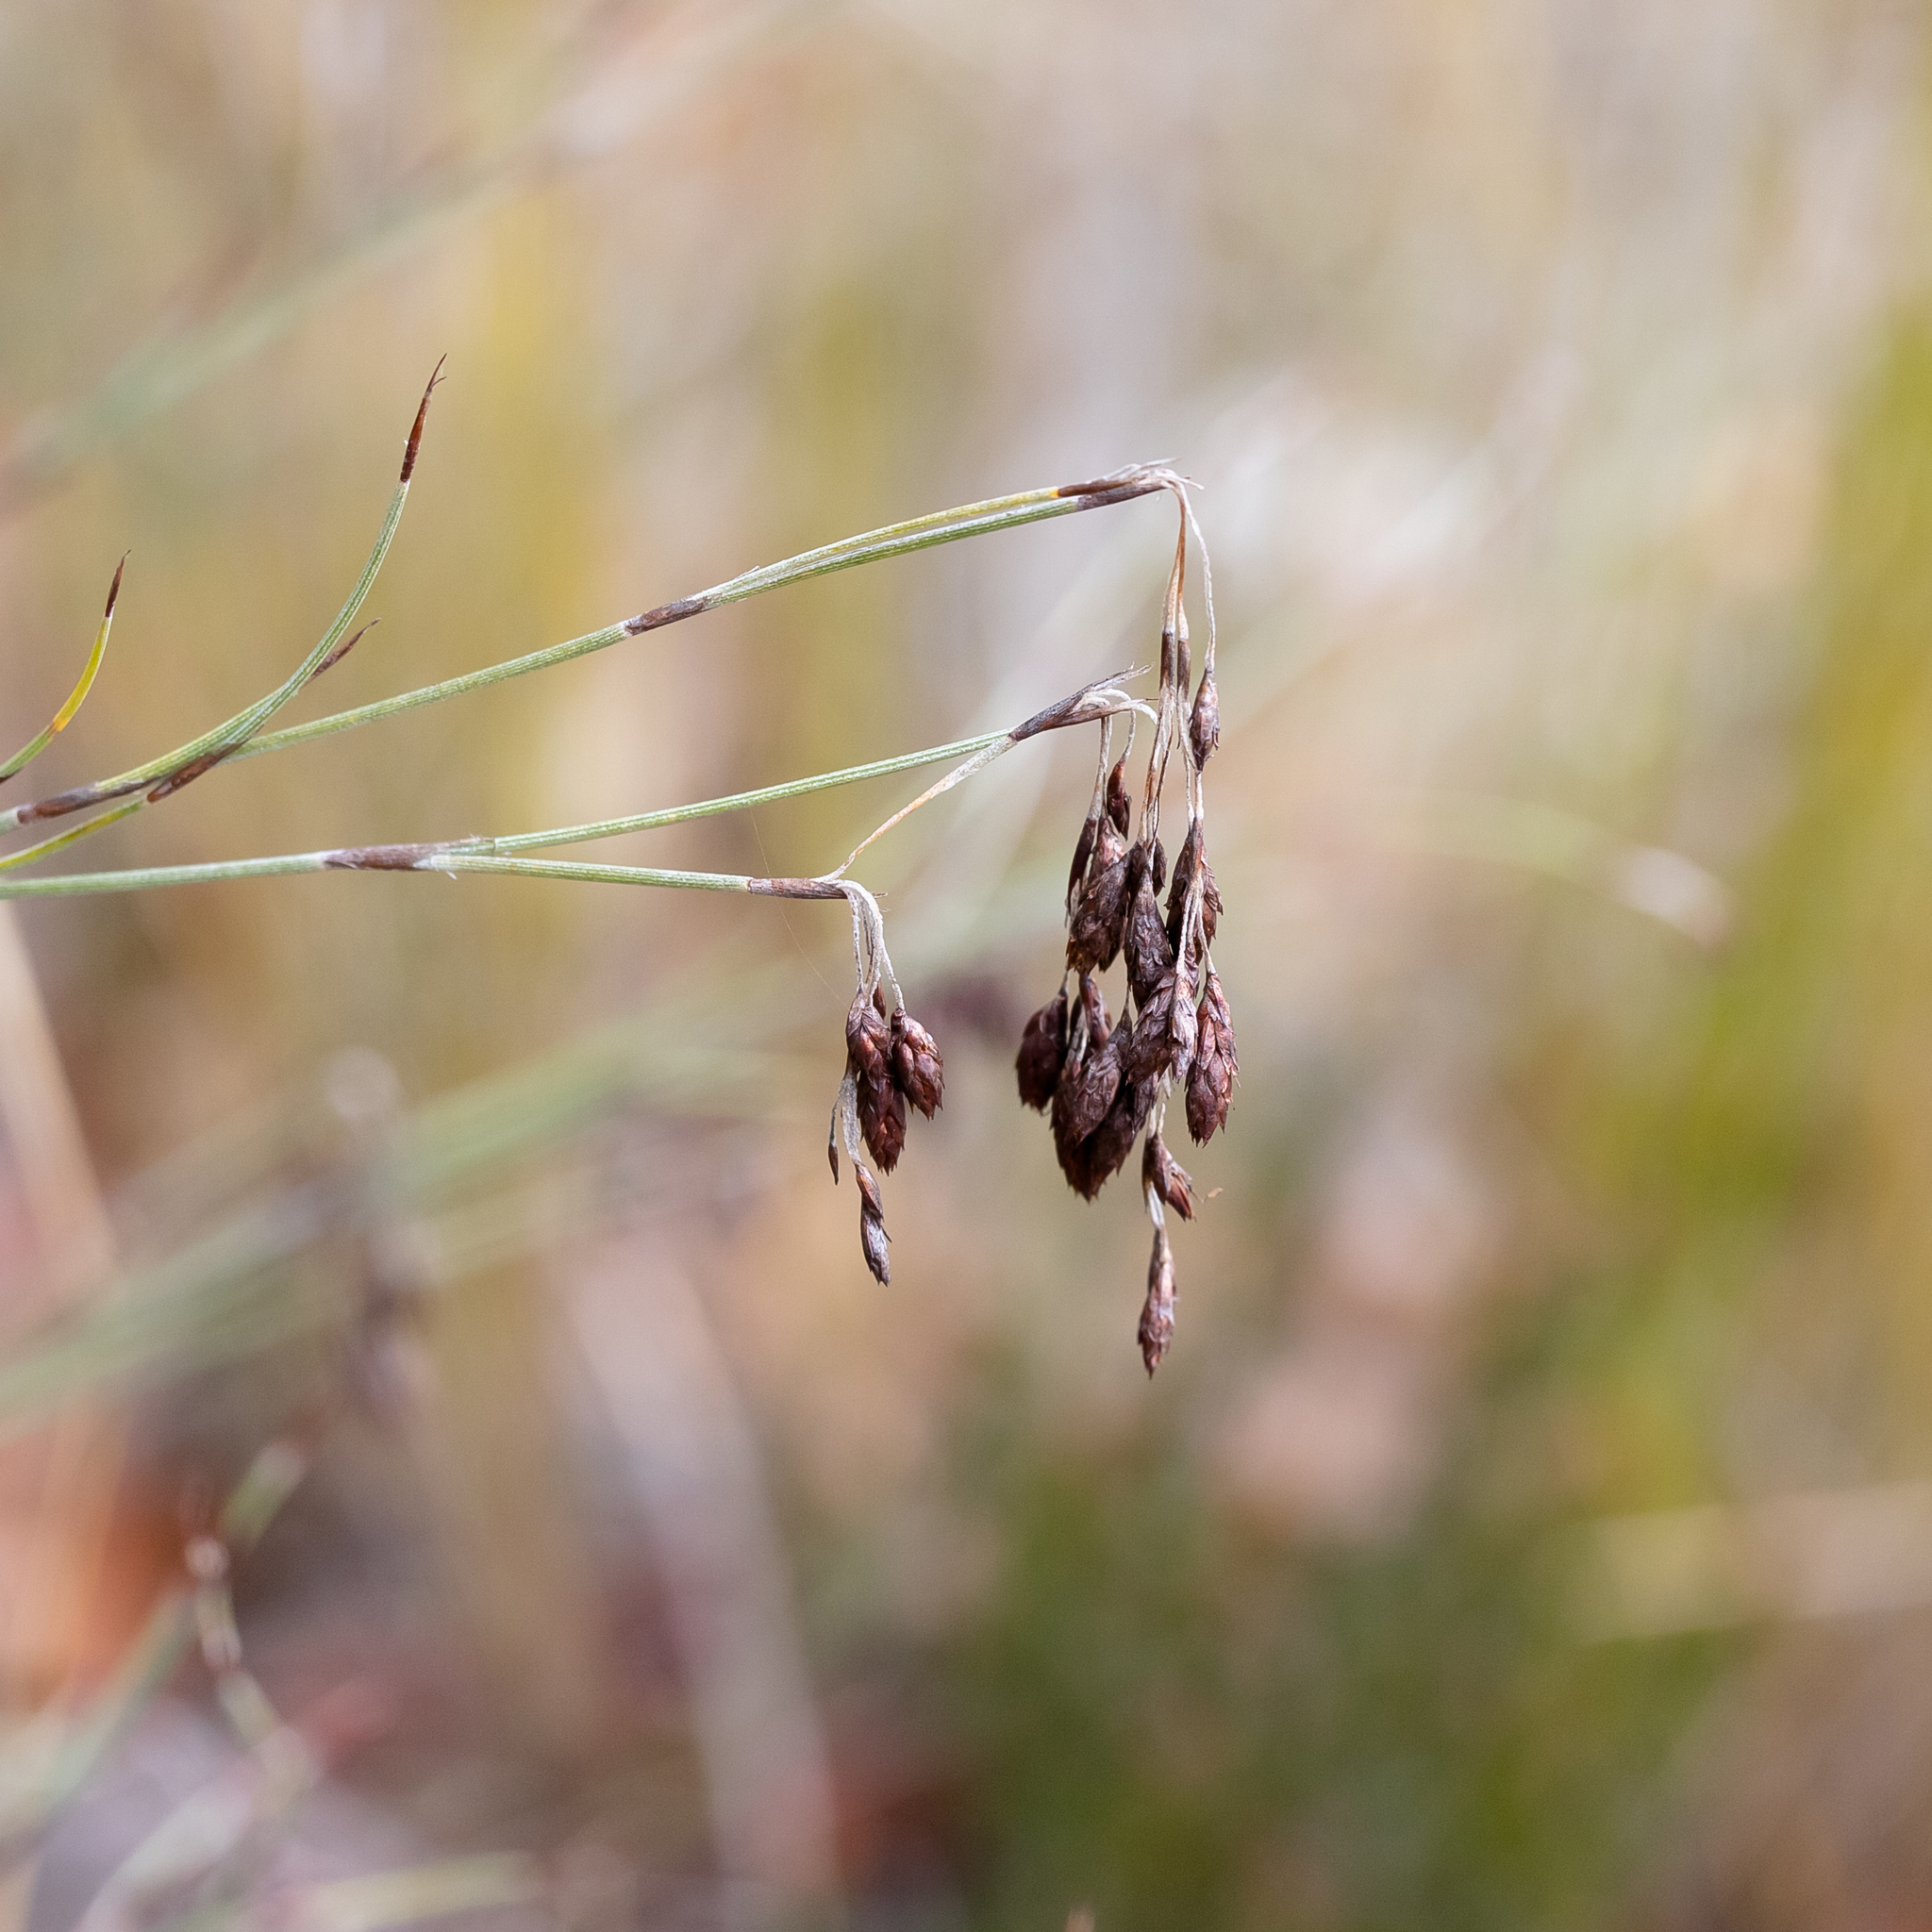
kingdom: Plantae
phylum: Tracheophyta
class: Liliopsida
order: Poales
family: Restionaceae
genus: Hypolaena
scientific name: Hypolaena fastigiata
